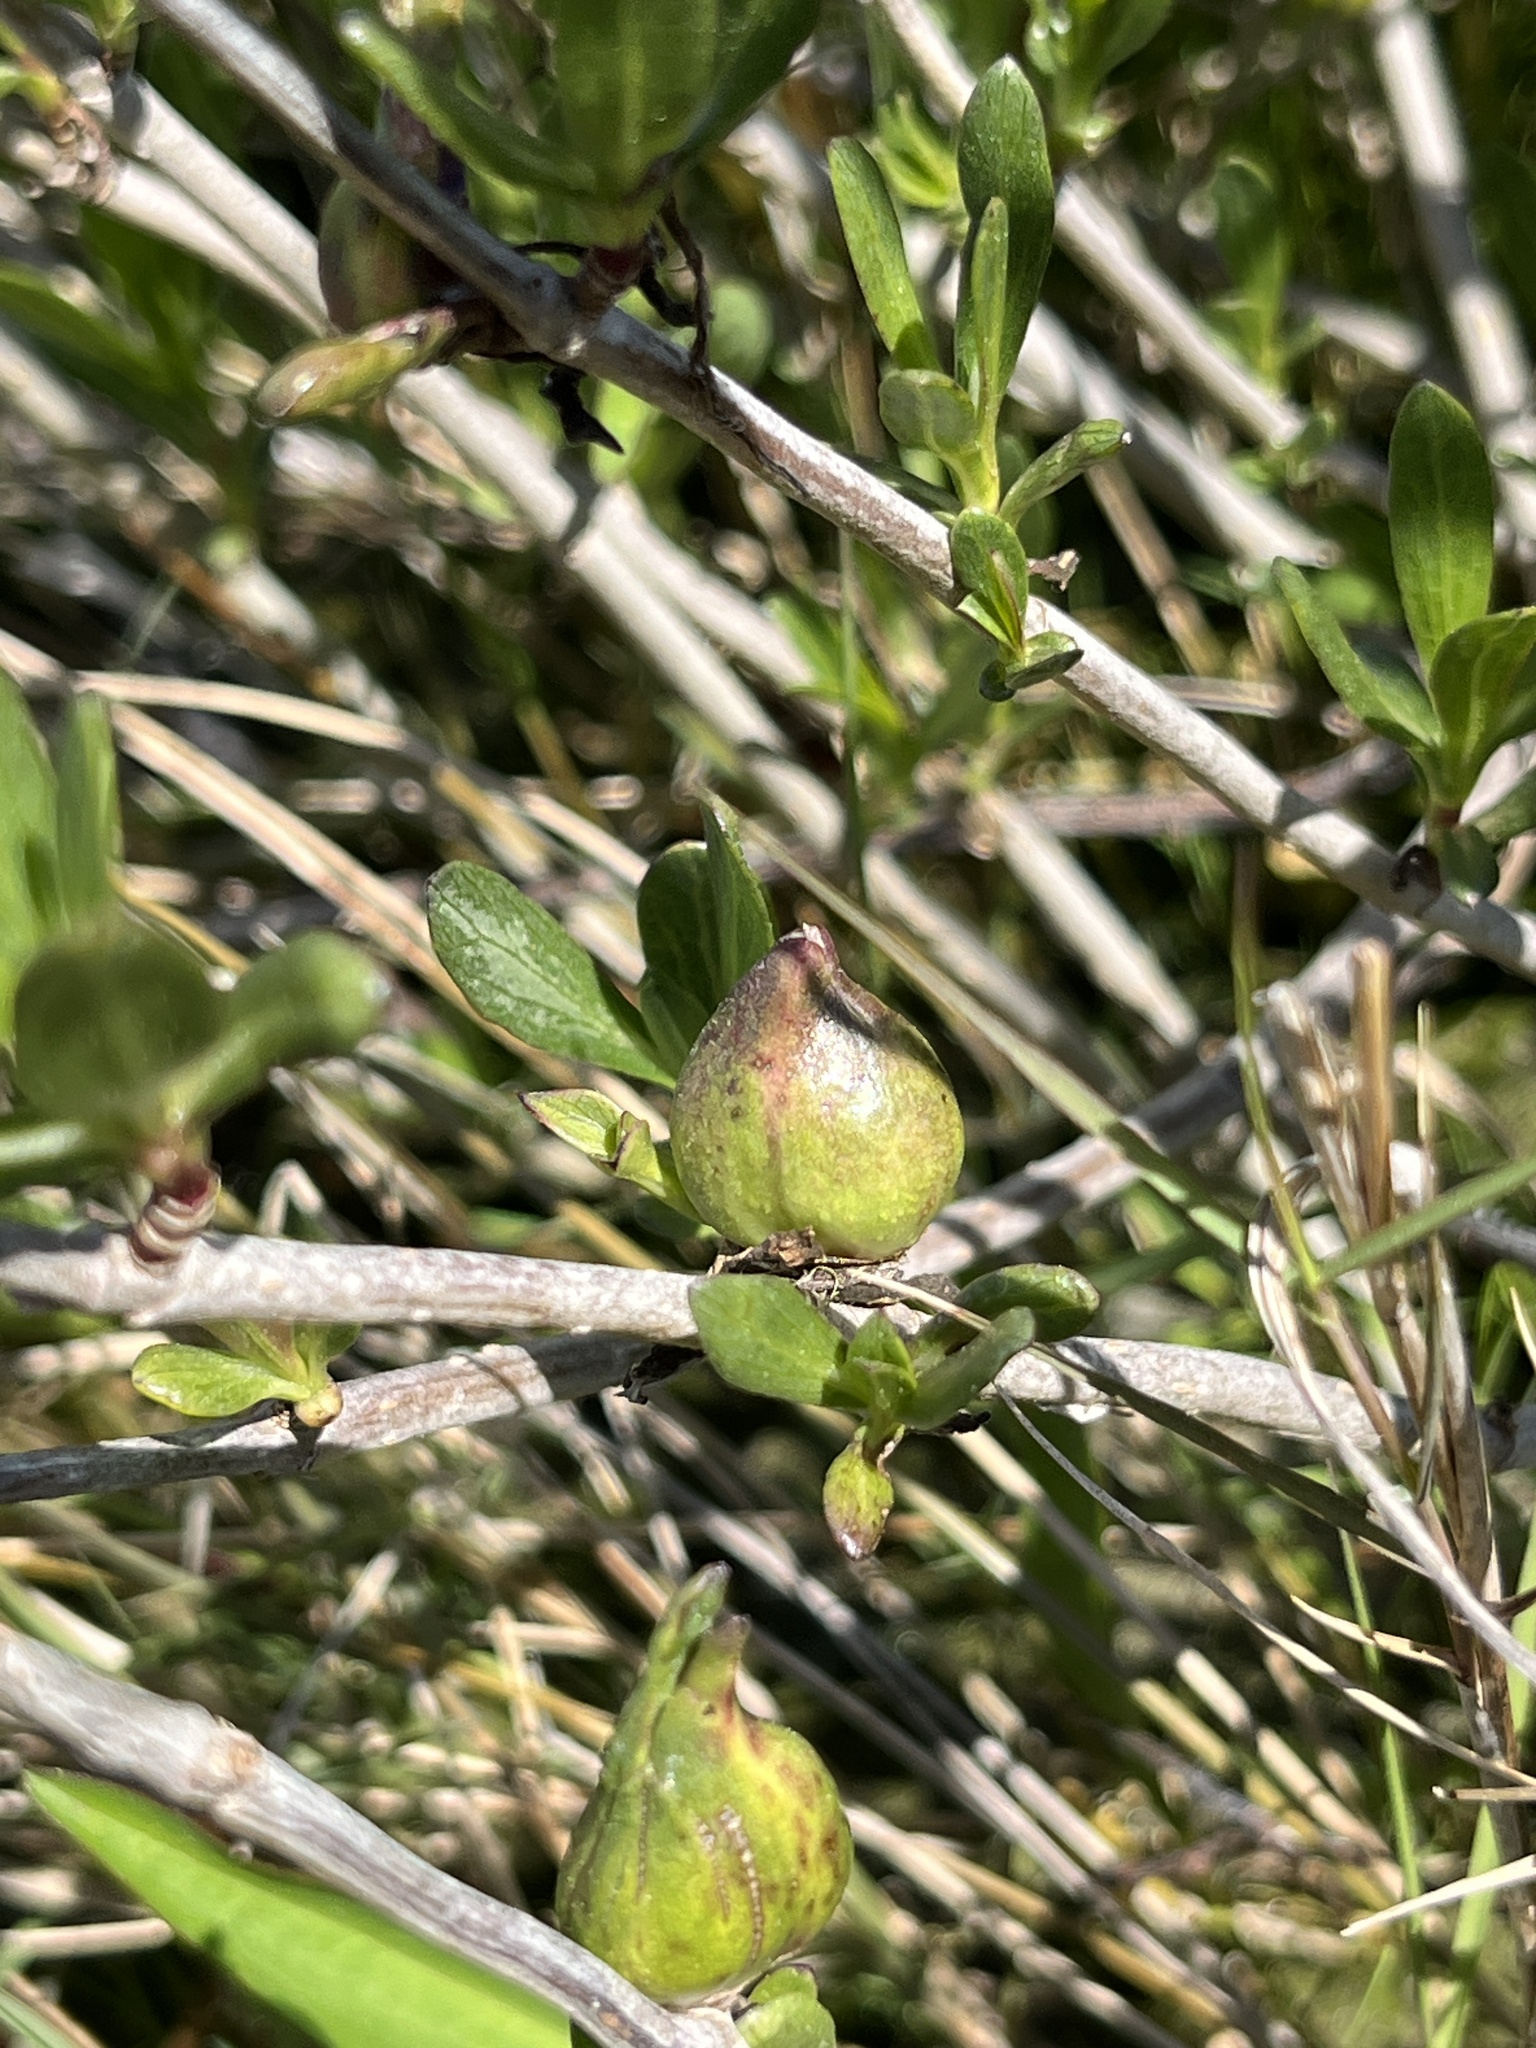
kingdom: Animalia
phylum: Arthropoda
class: Insecta
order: Diptera
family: Cecidomyiidae
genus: Asphondylia
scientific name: Asphondylia borrichiae
